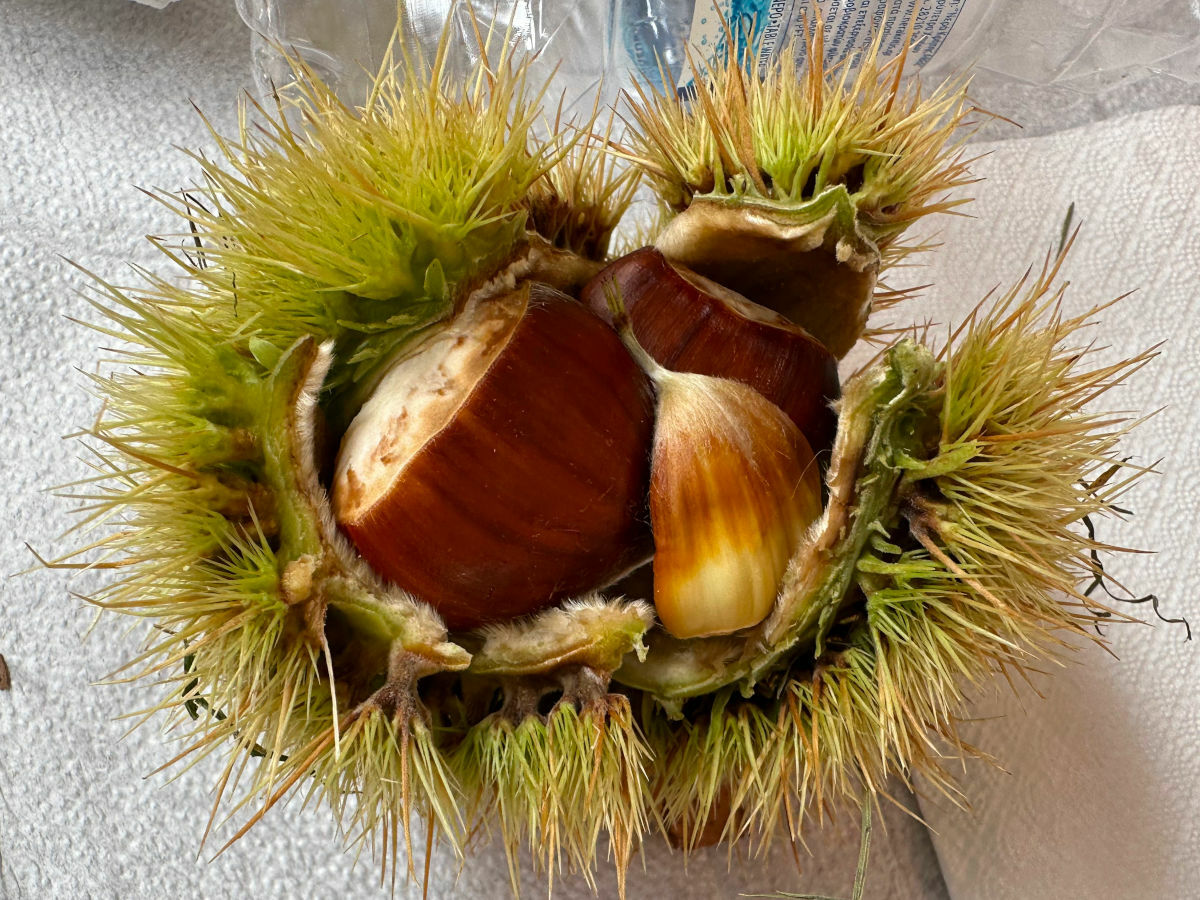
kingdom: Plantae
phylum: Tracheophyta
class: Magnoliopsida
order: Fagales
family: Fagaceae
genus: Castanea
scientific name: Castanea sativa
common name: Sweet chestnut
